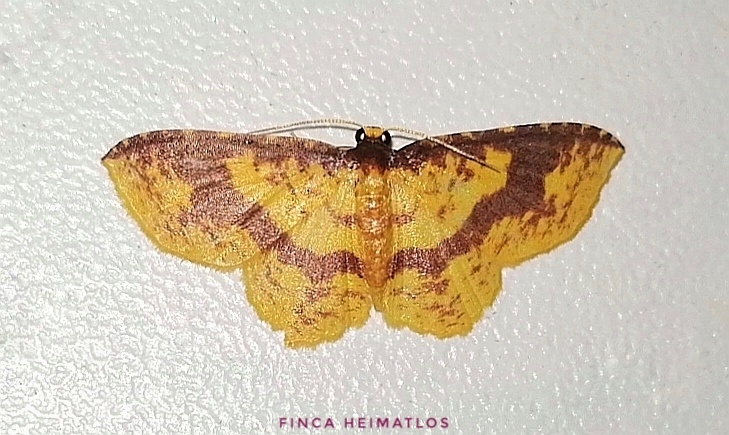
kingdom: Animalia
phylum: Arthropoda
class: Insecta
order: Lepidoptera
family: Geometridae
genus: Eois
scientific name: Eois guapa
